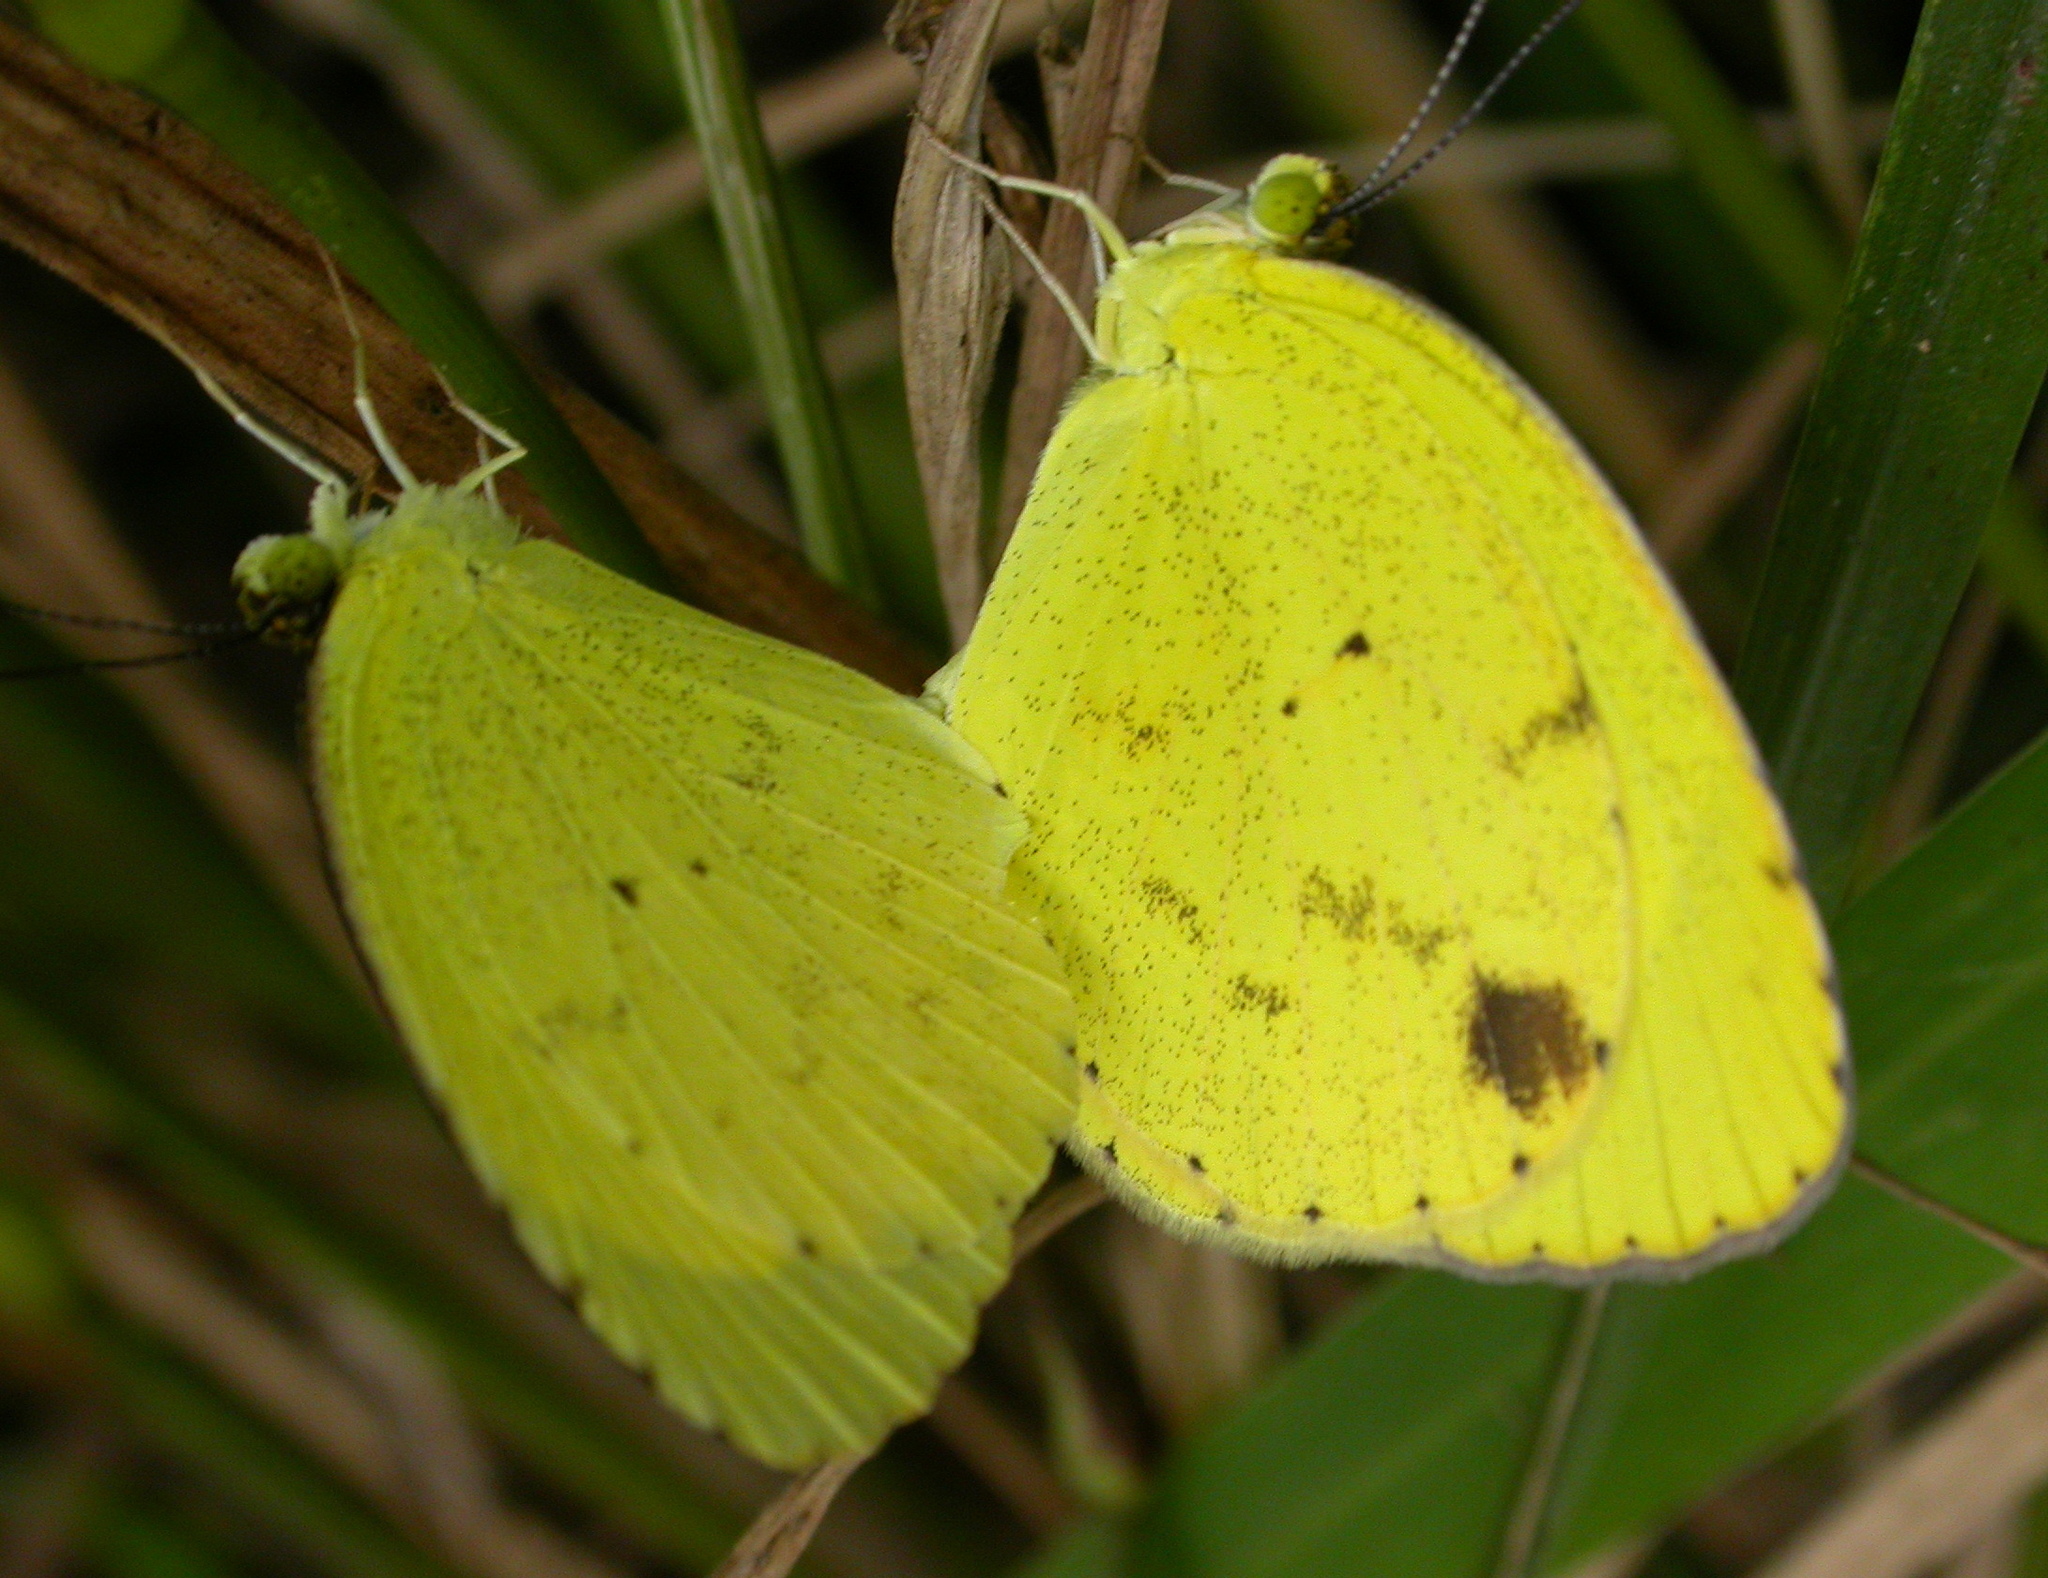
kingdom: Animalia
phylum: Arthropoda
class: Insecta
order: Lepidoptera
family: Pieridae
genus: Pyrisitia
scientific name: Pyrisitia nise
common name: Mimosa yellow
